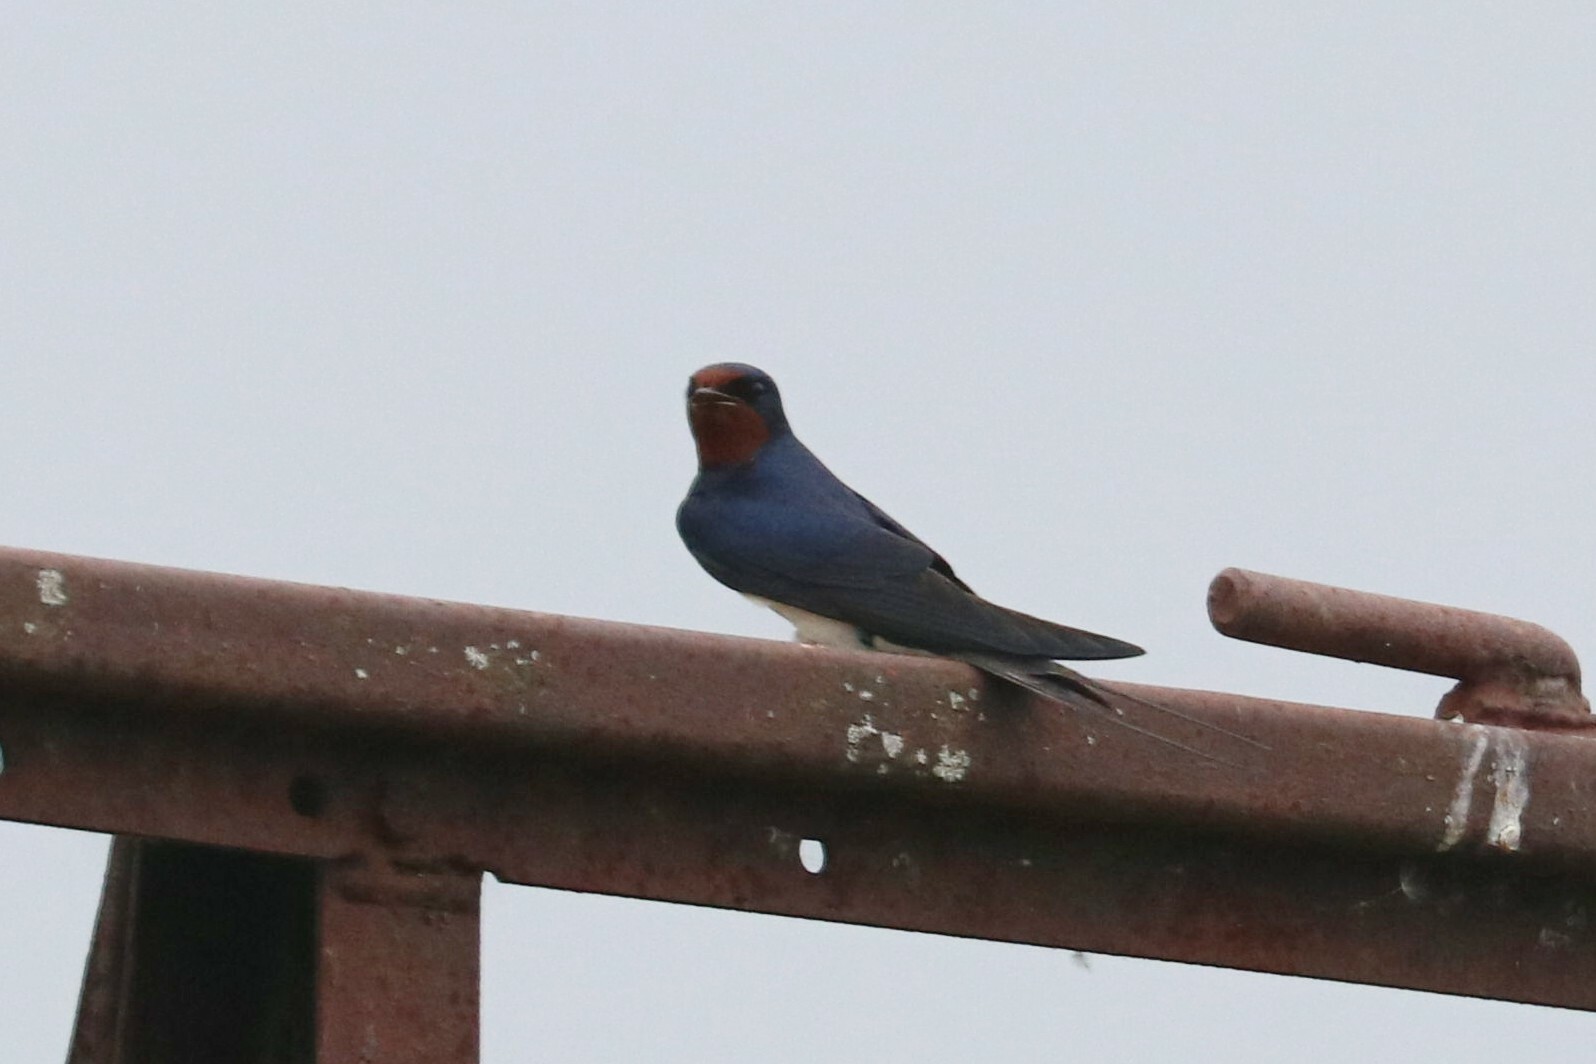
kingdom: Animalia
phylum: Chordata
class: Aves
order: Passeriformes
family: Hirundinidae
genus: Hirundo
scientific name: Hirundo rustica
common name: Barn swallow
